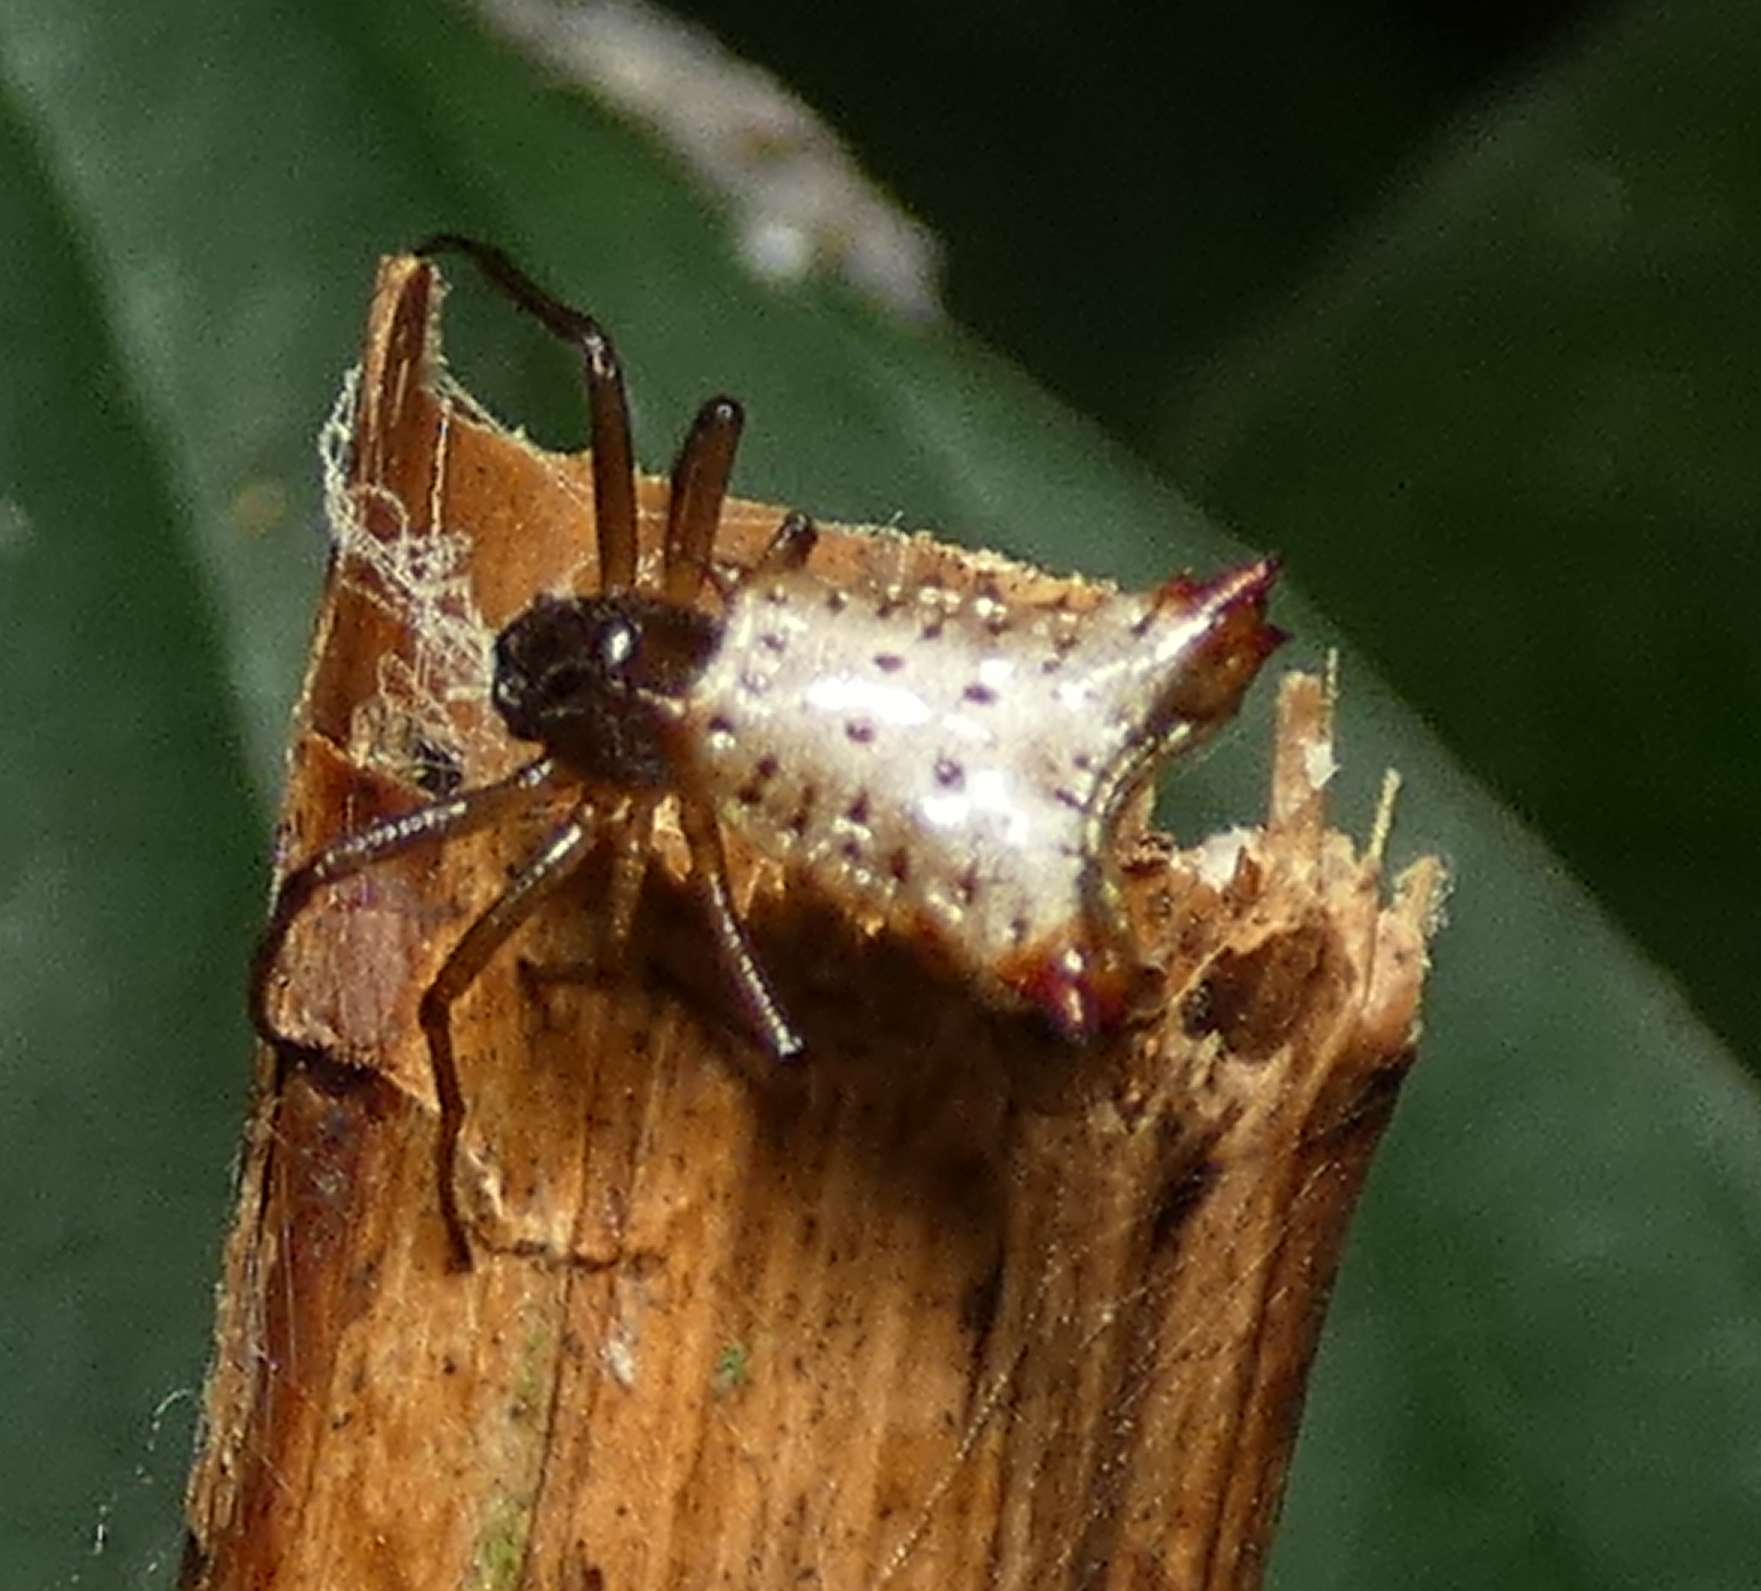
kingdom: Animalia
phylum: Arthropoda
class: Arachnida
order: Araneae
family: Araneidae
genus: Micrathena
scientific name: Micrathena plana
